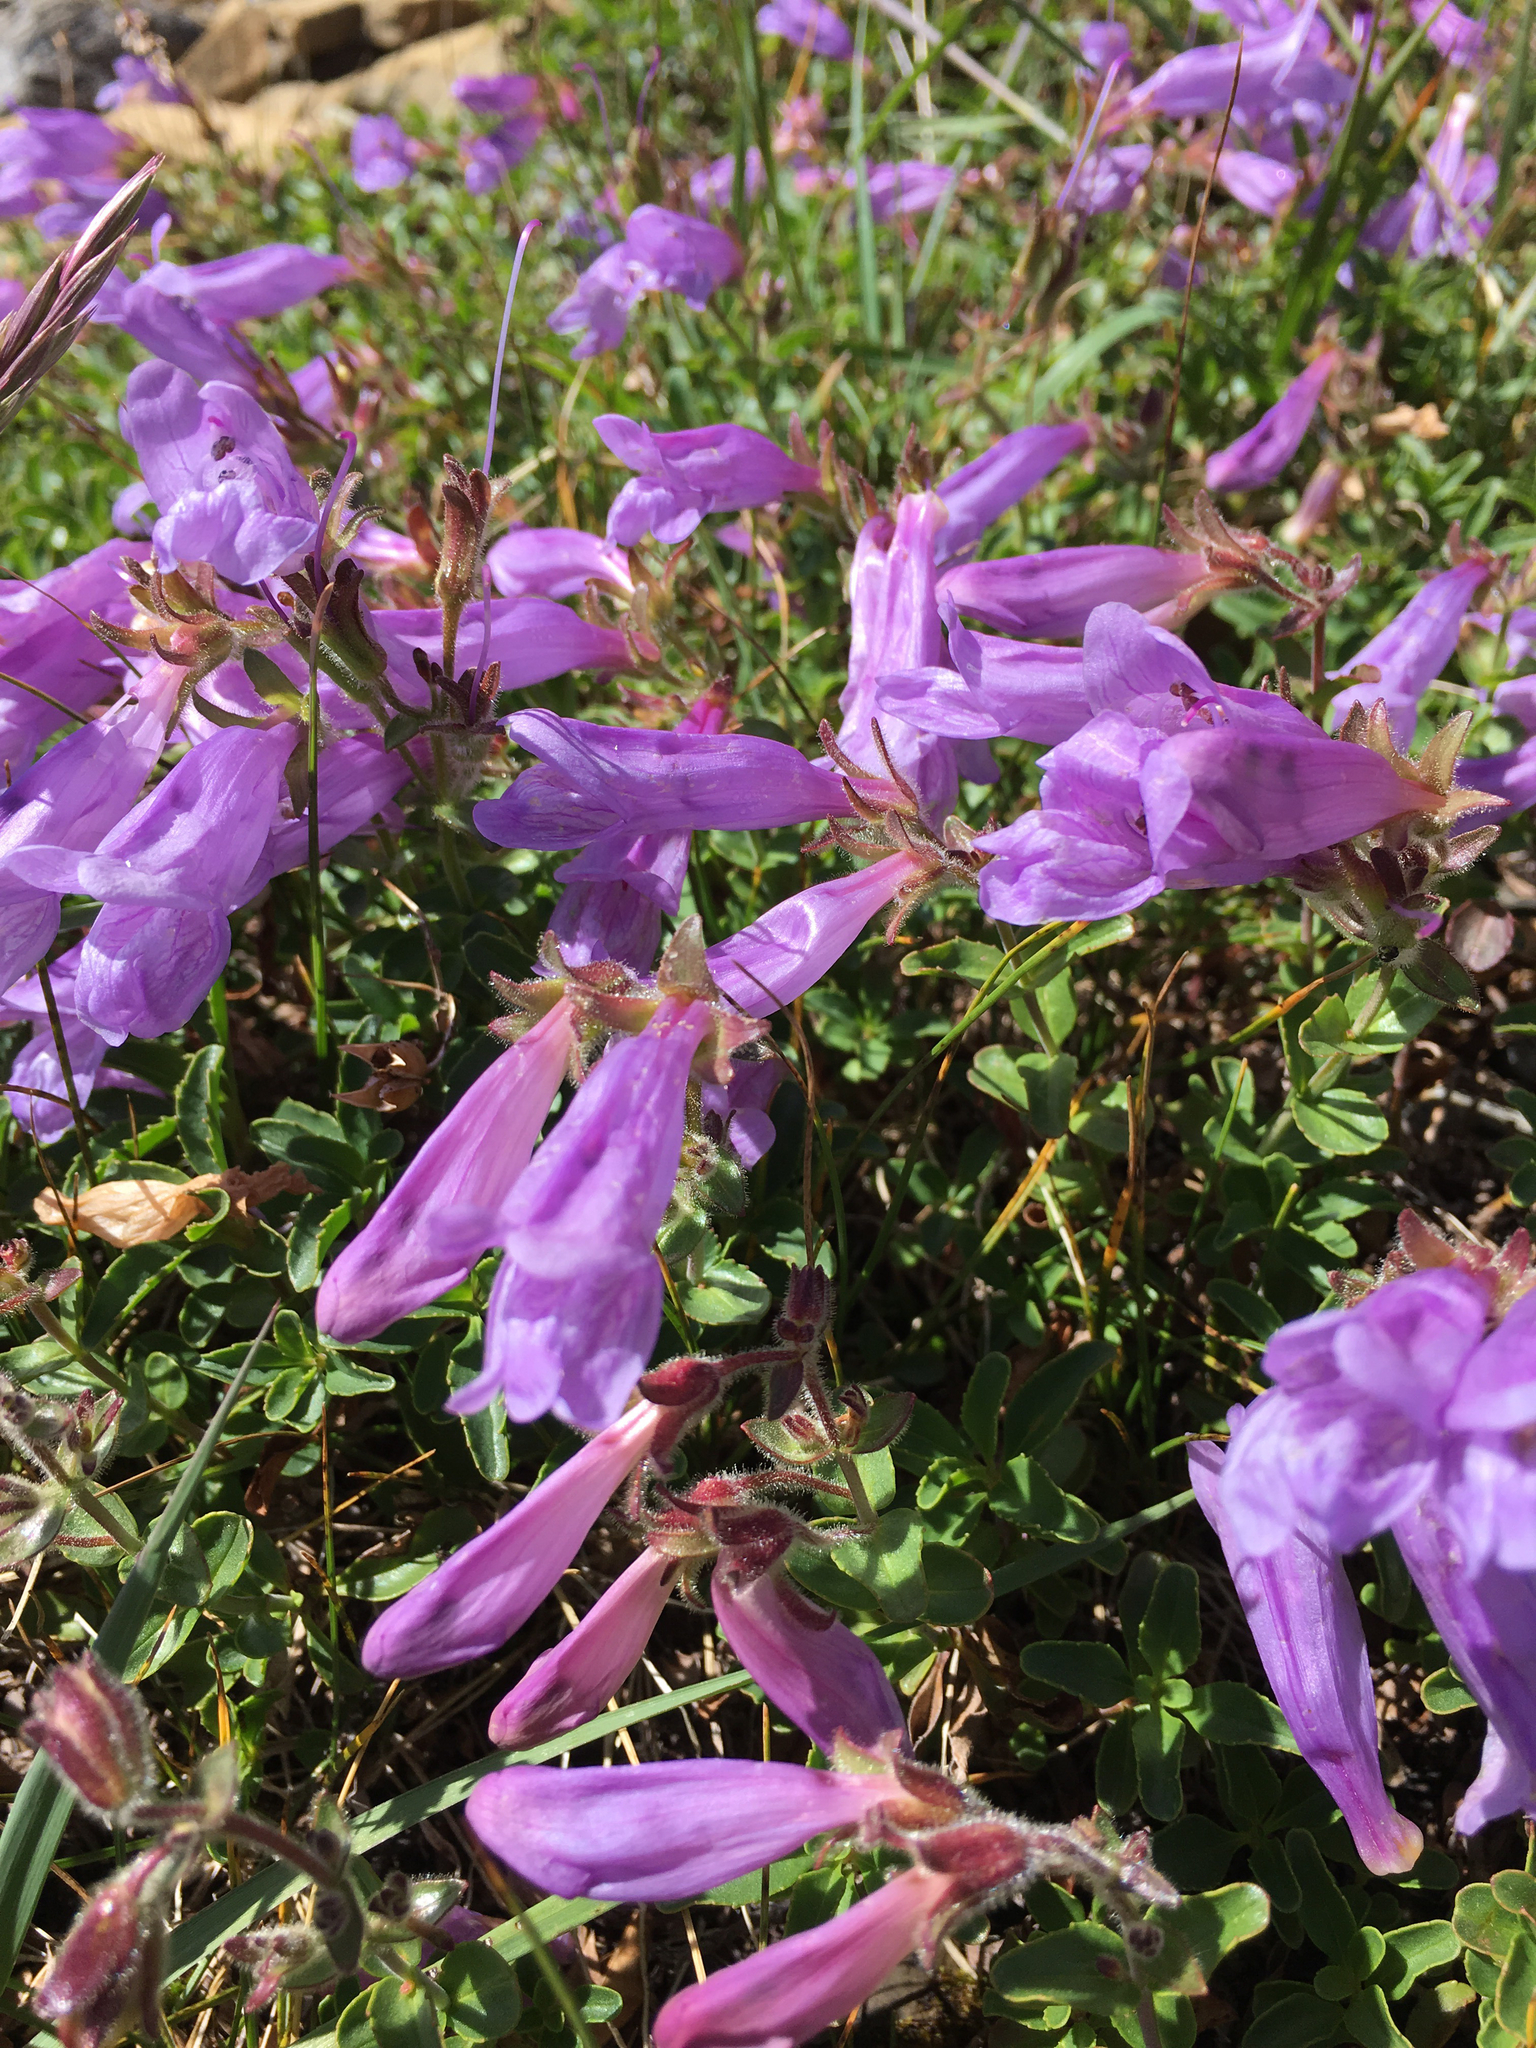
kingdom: Plantae
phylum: Tracheophyta
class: Magnoliopsida
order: Lamiales
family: Plantaginaceae
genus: Penstemon
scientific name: Penstemon ellipticus
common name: Alpine beardtongue
